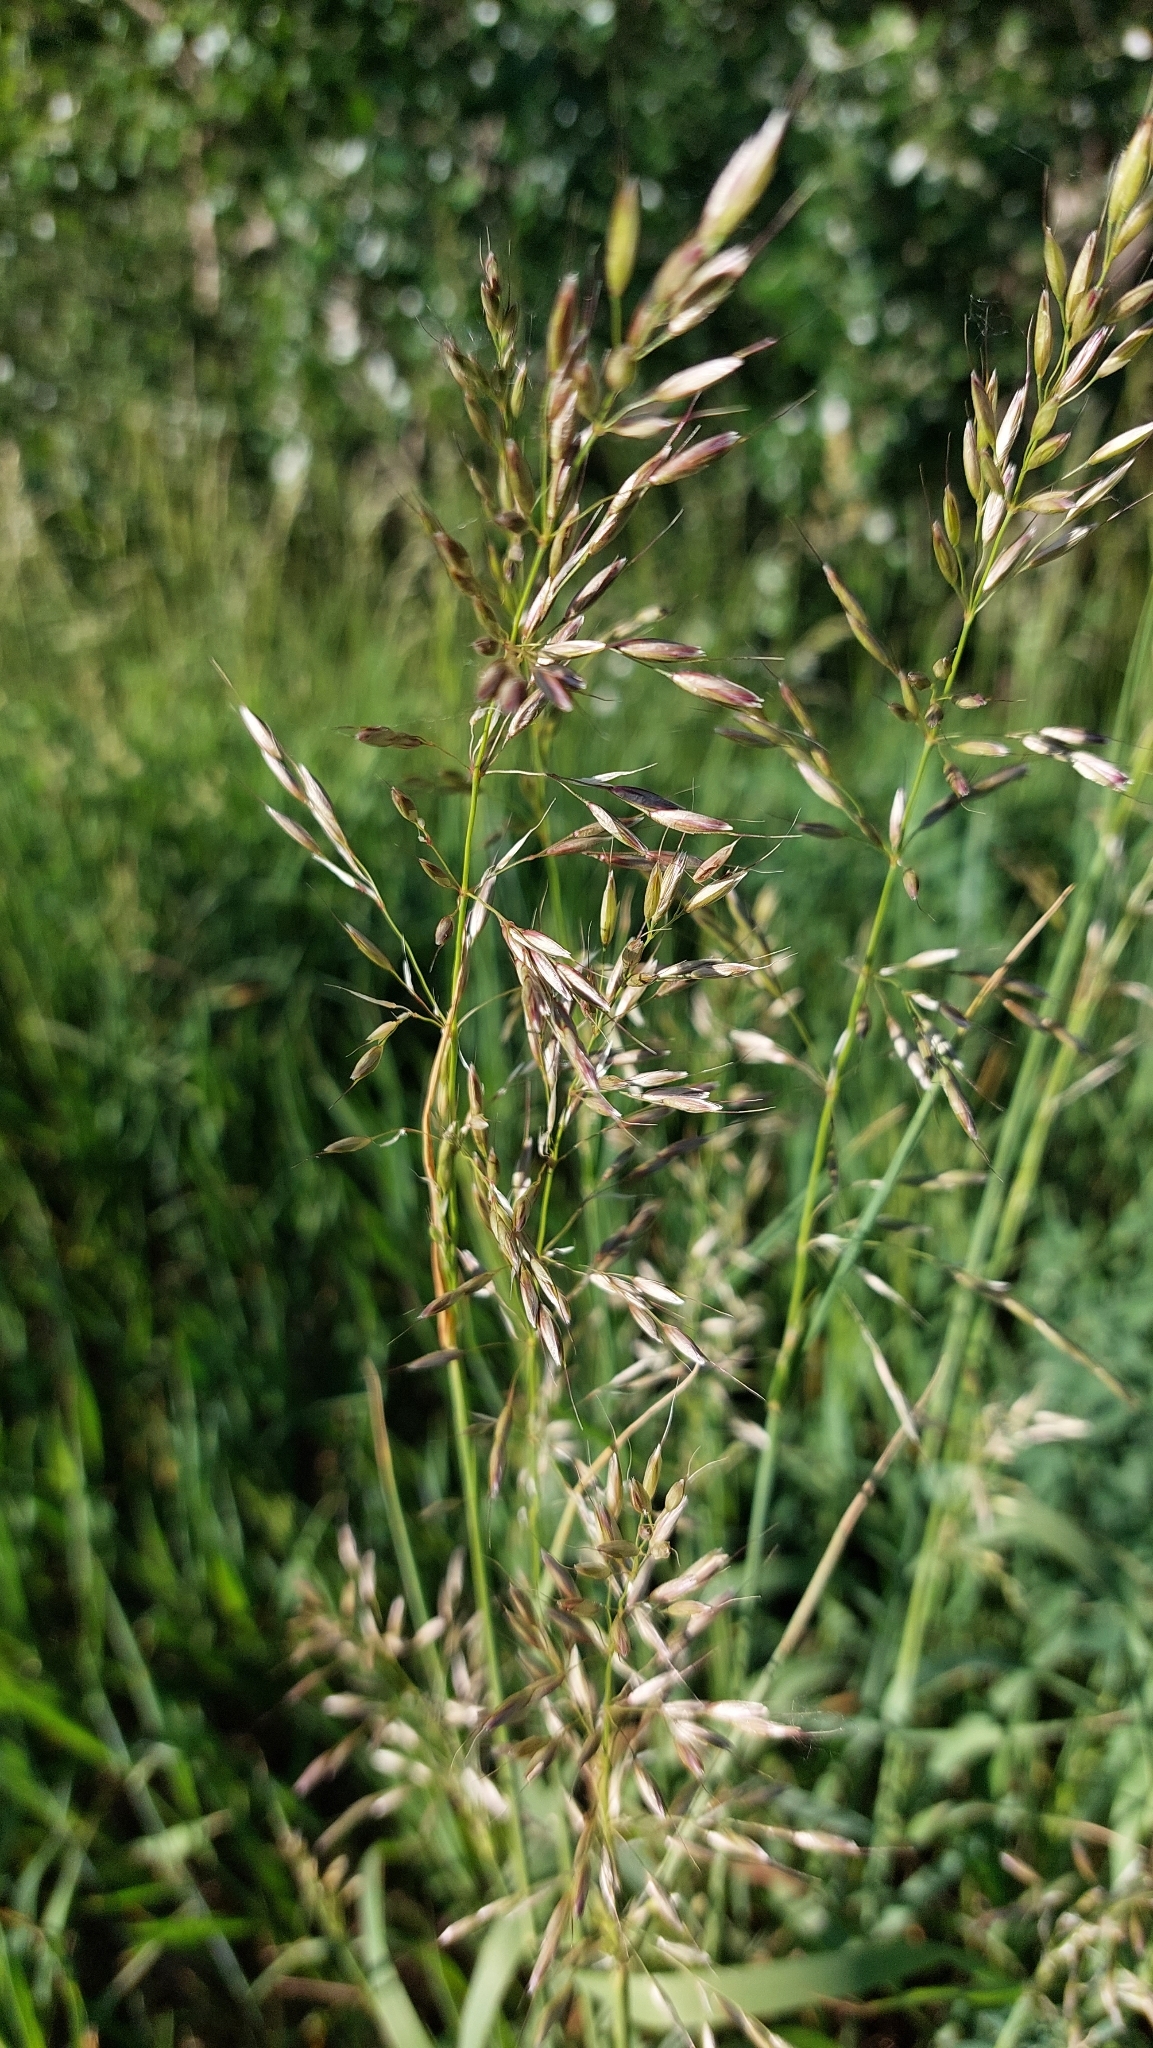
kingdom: Plantae
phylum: Tracheophyta
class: Liliopsida
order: Poales
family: Poaceae
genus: Arrhenatherum
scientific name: Arrhenatherum elatius
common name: Tall oatgrass
